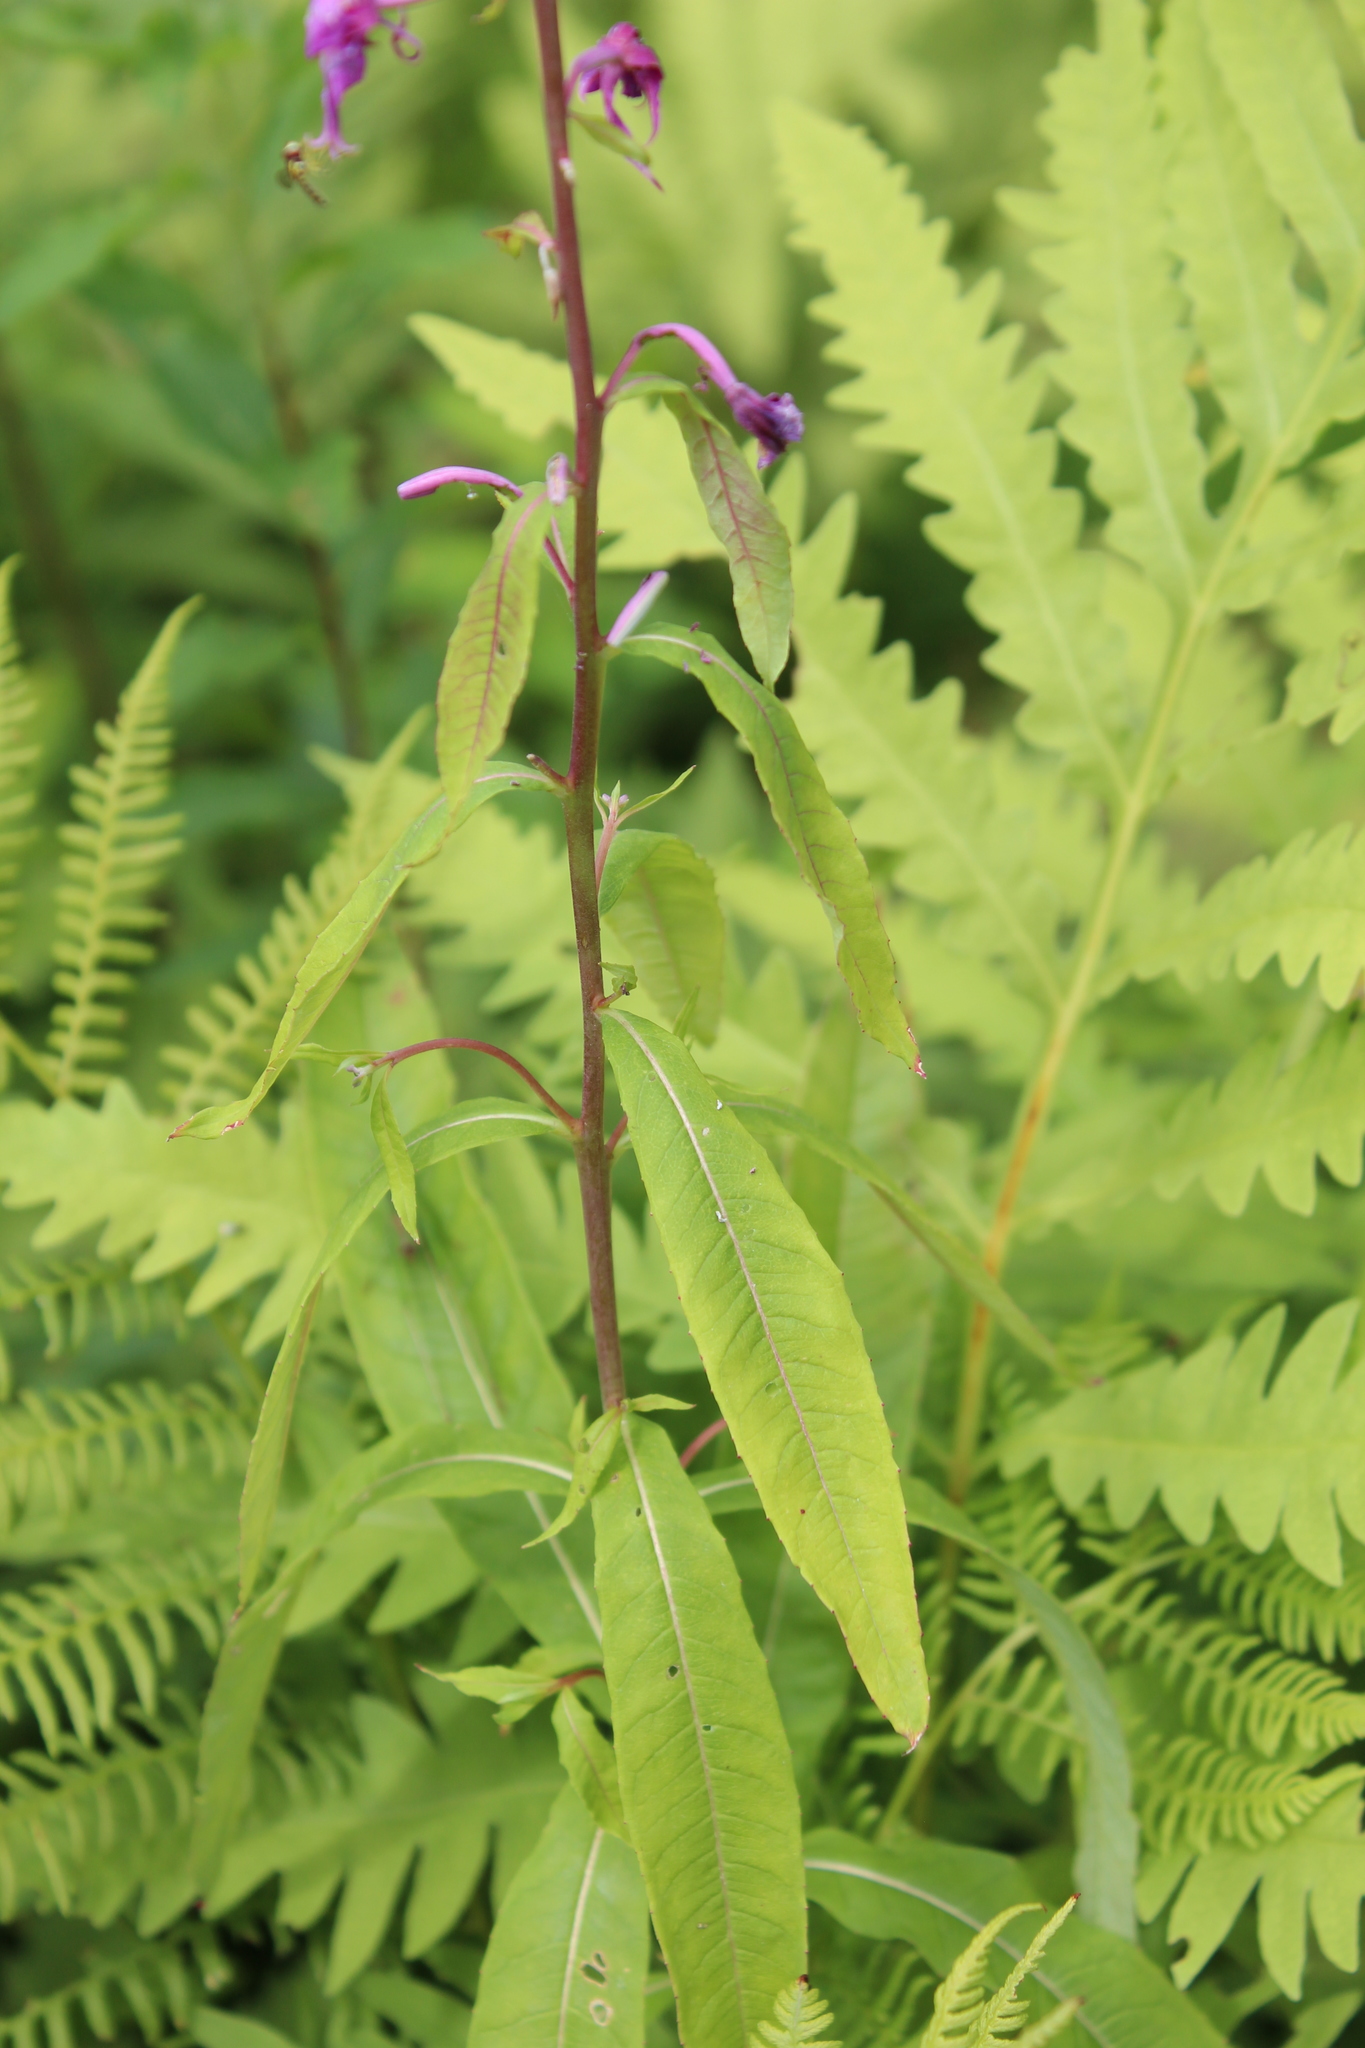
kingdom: Plantae
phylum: Tracheophyta
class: Magnoliopsida
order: Myrtales
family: Onagraceae
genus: Chamaenerion
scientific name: Chamaenerion angustifolium
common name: Fireweed
